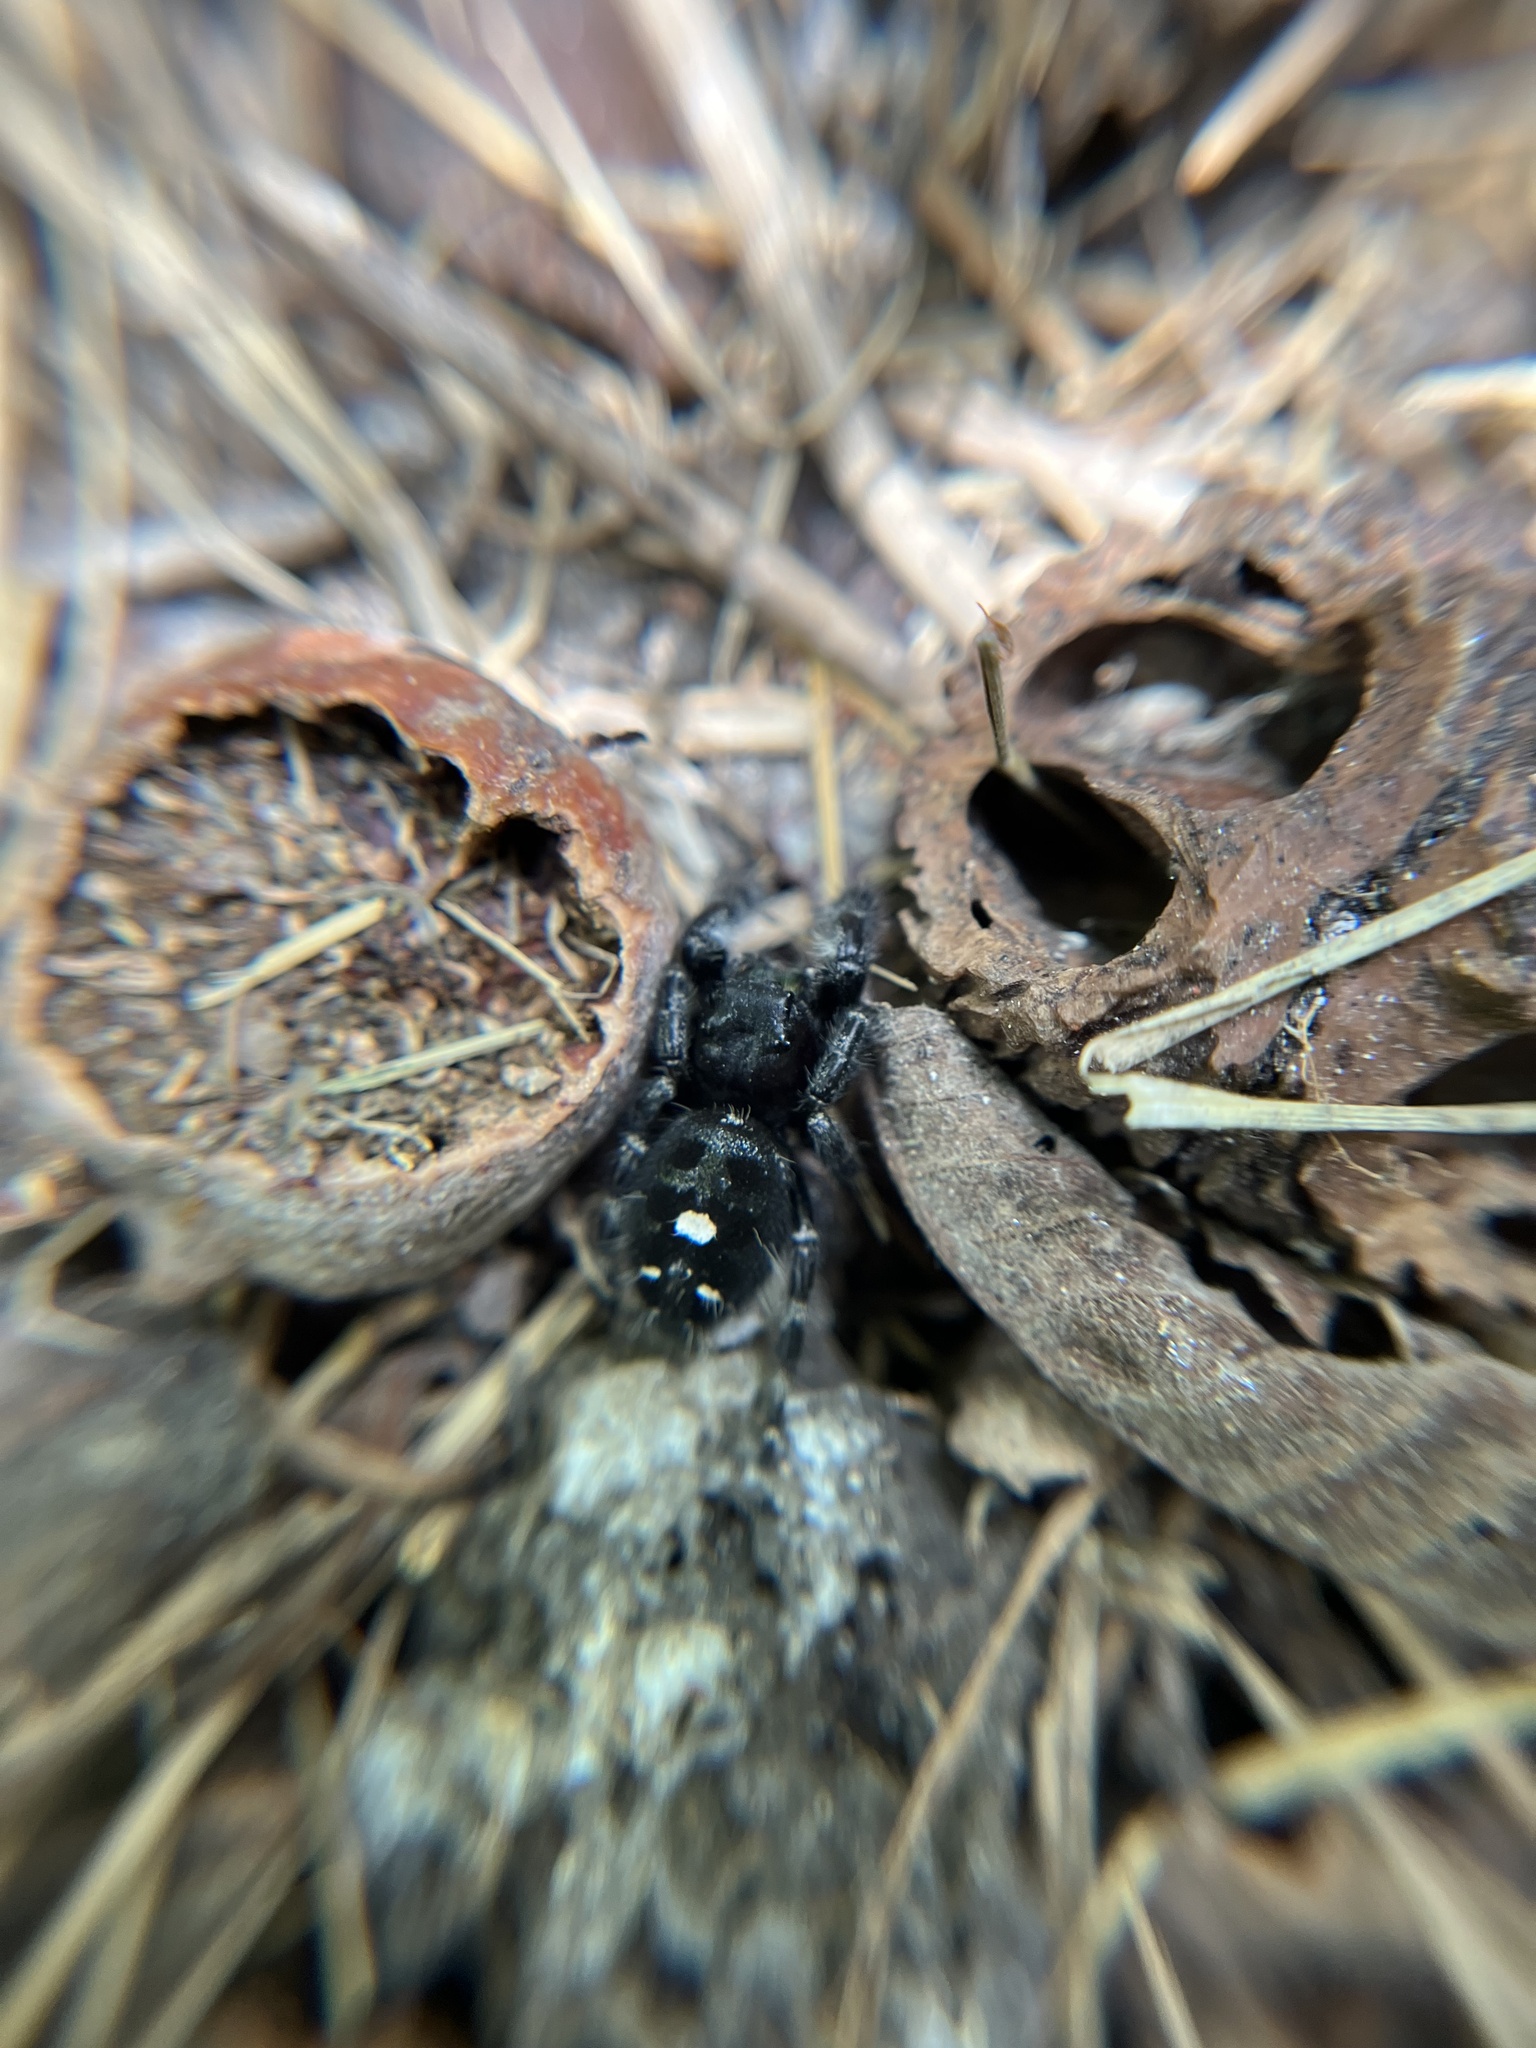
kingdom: Animalia
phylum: Arthropoda
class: Arachnida
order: Araneae
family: Salticidae
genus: Phidippus
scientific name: Phidippus audax
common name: Bold jumper
